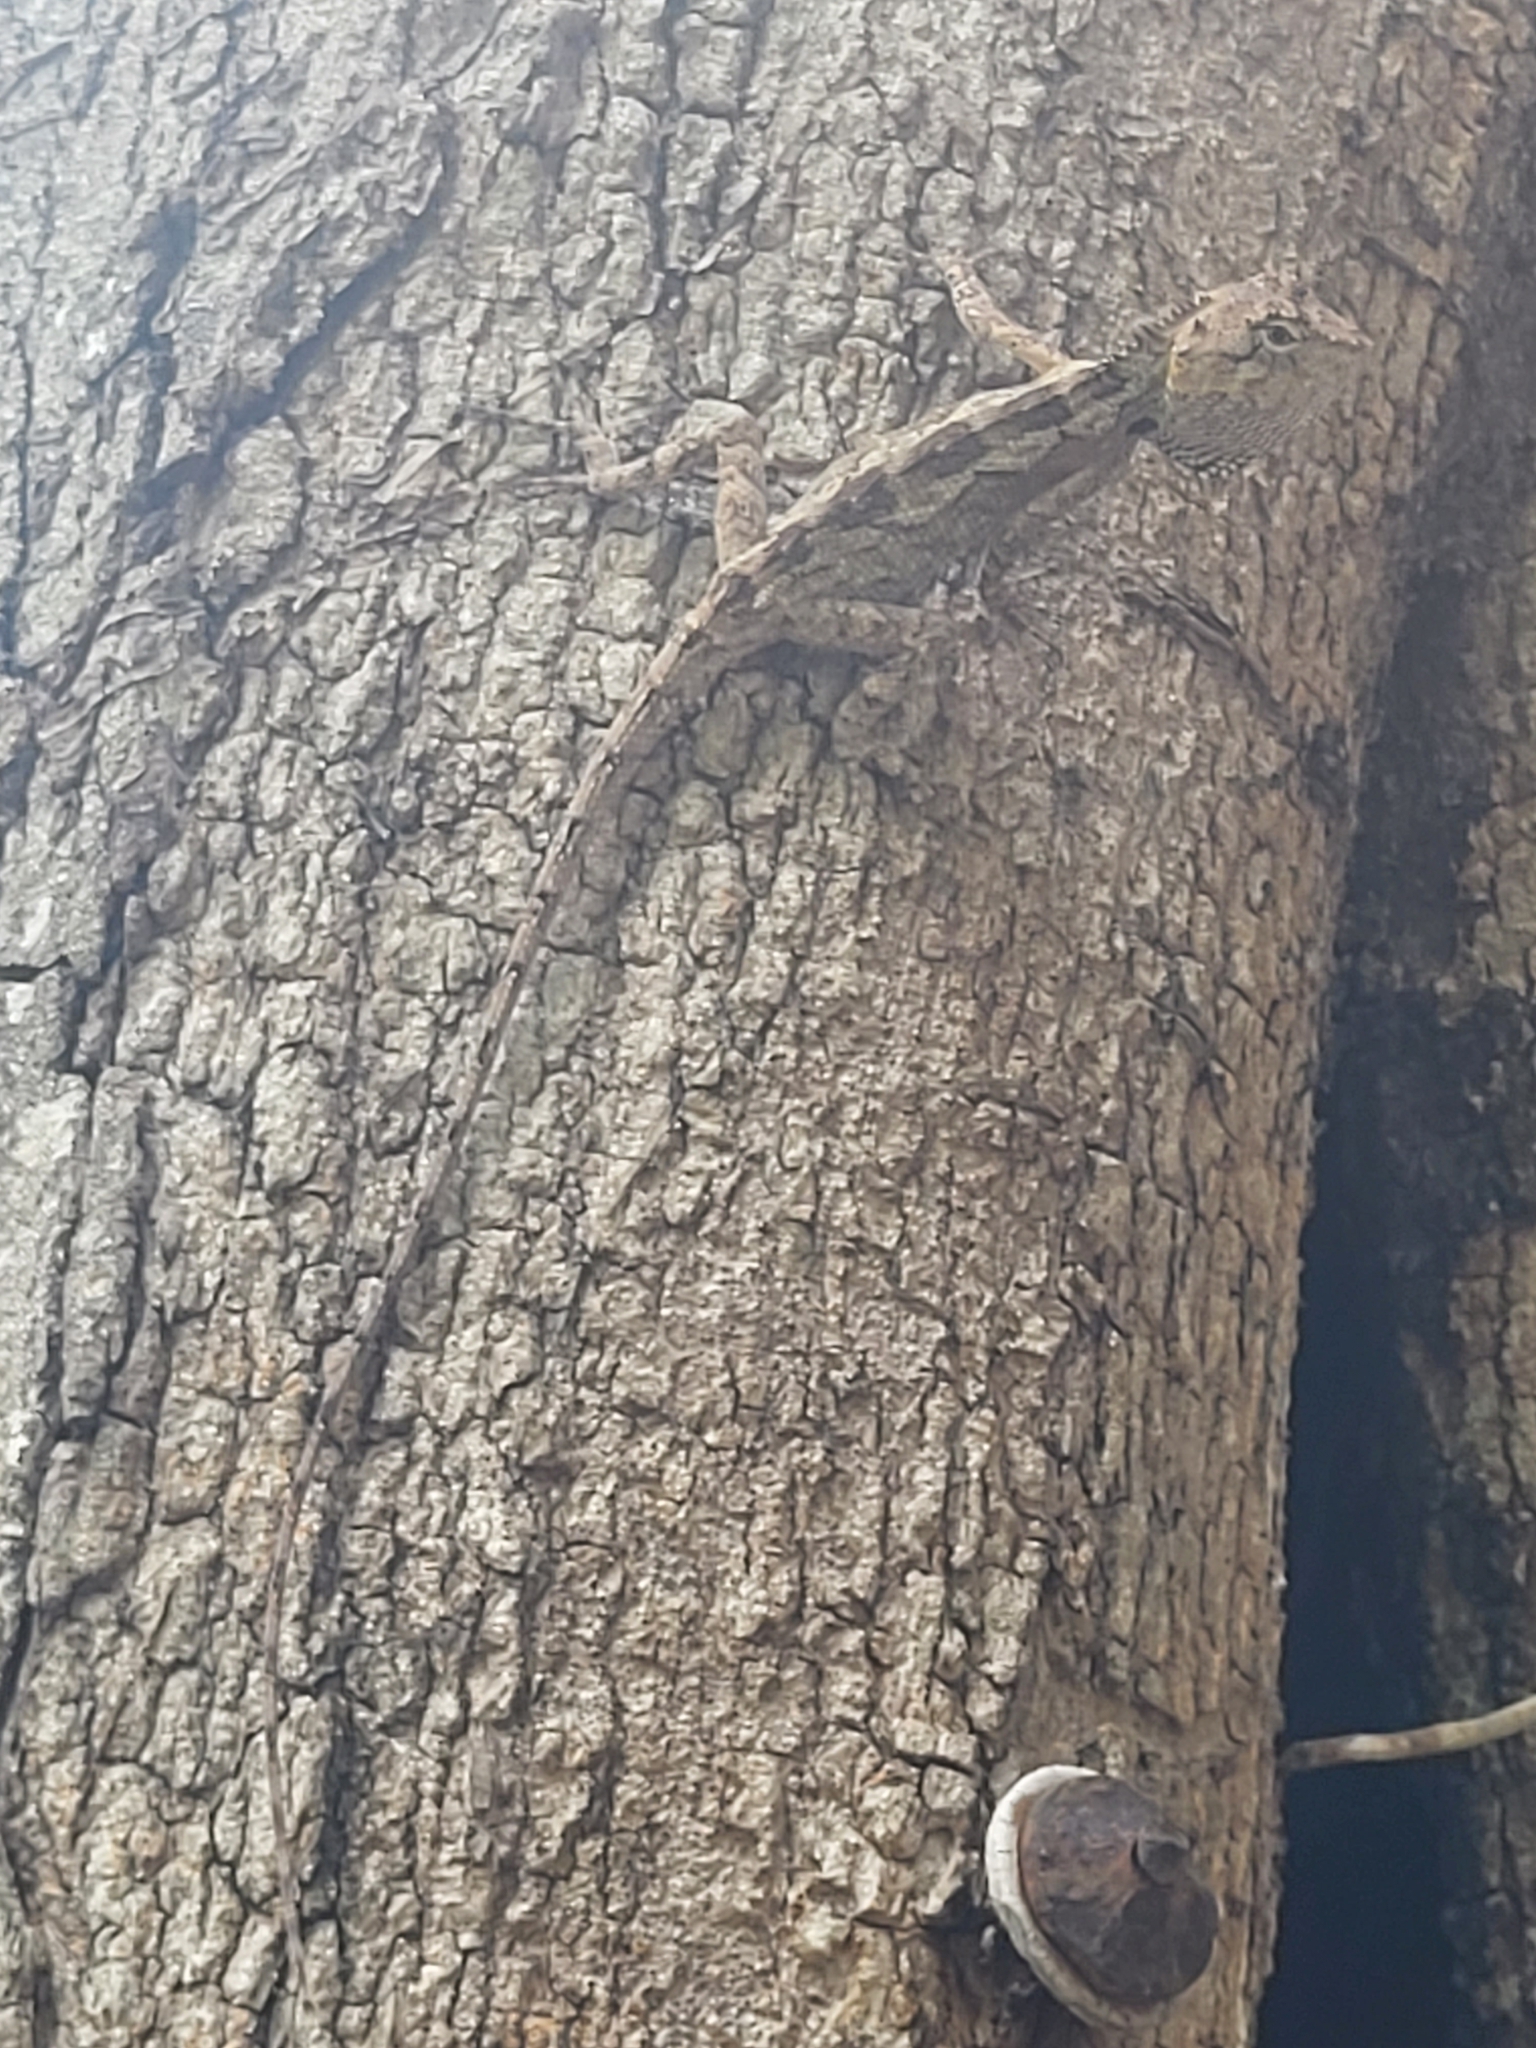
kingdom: Animalia
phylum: Chordata
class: Squamata
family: Agamidae
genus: Calotes
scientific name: Calotes bachae
